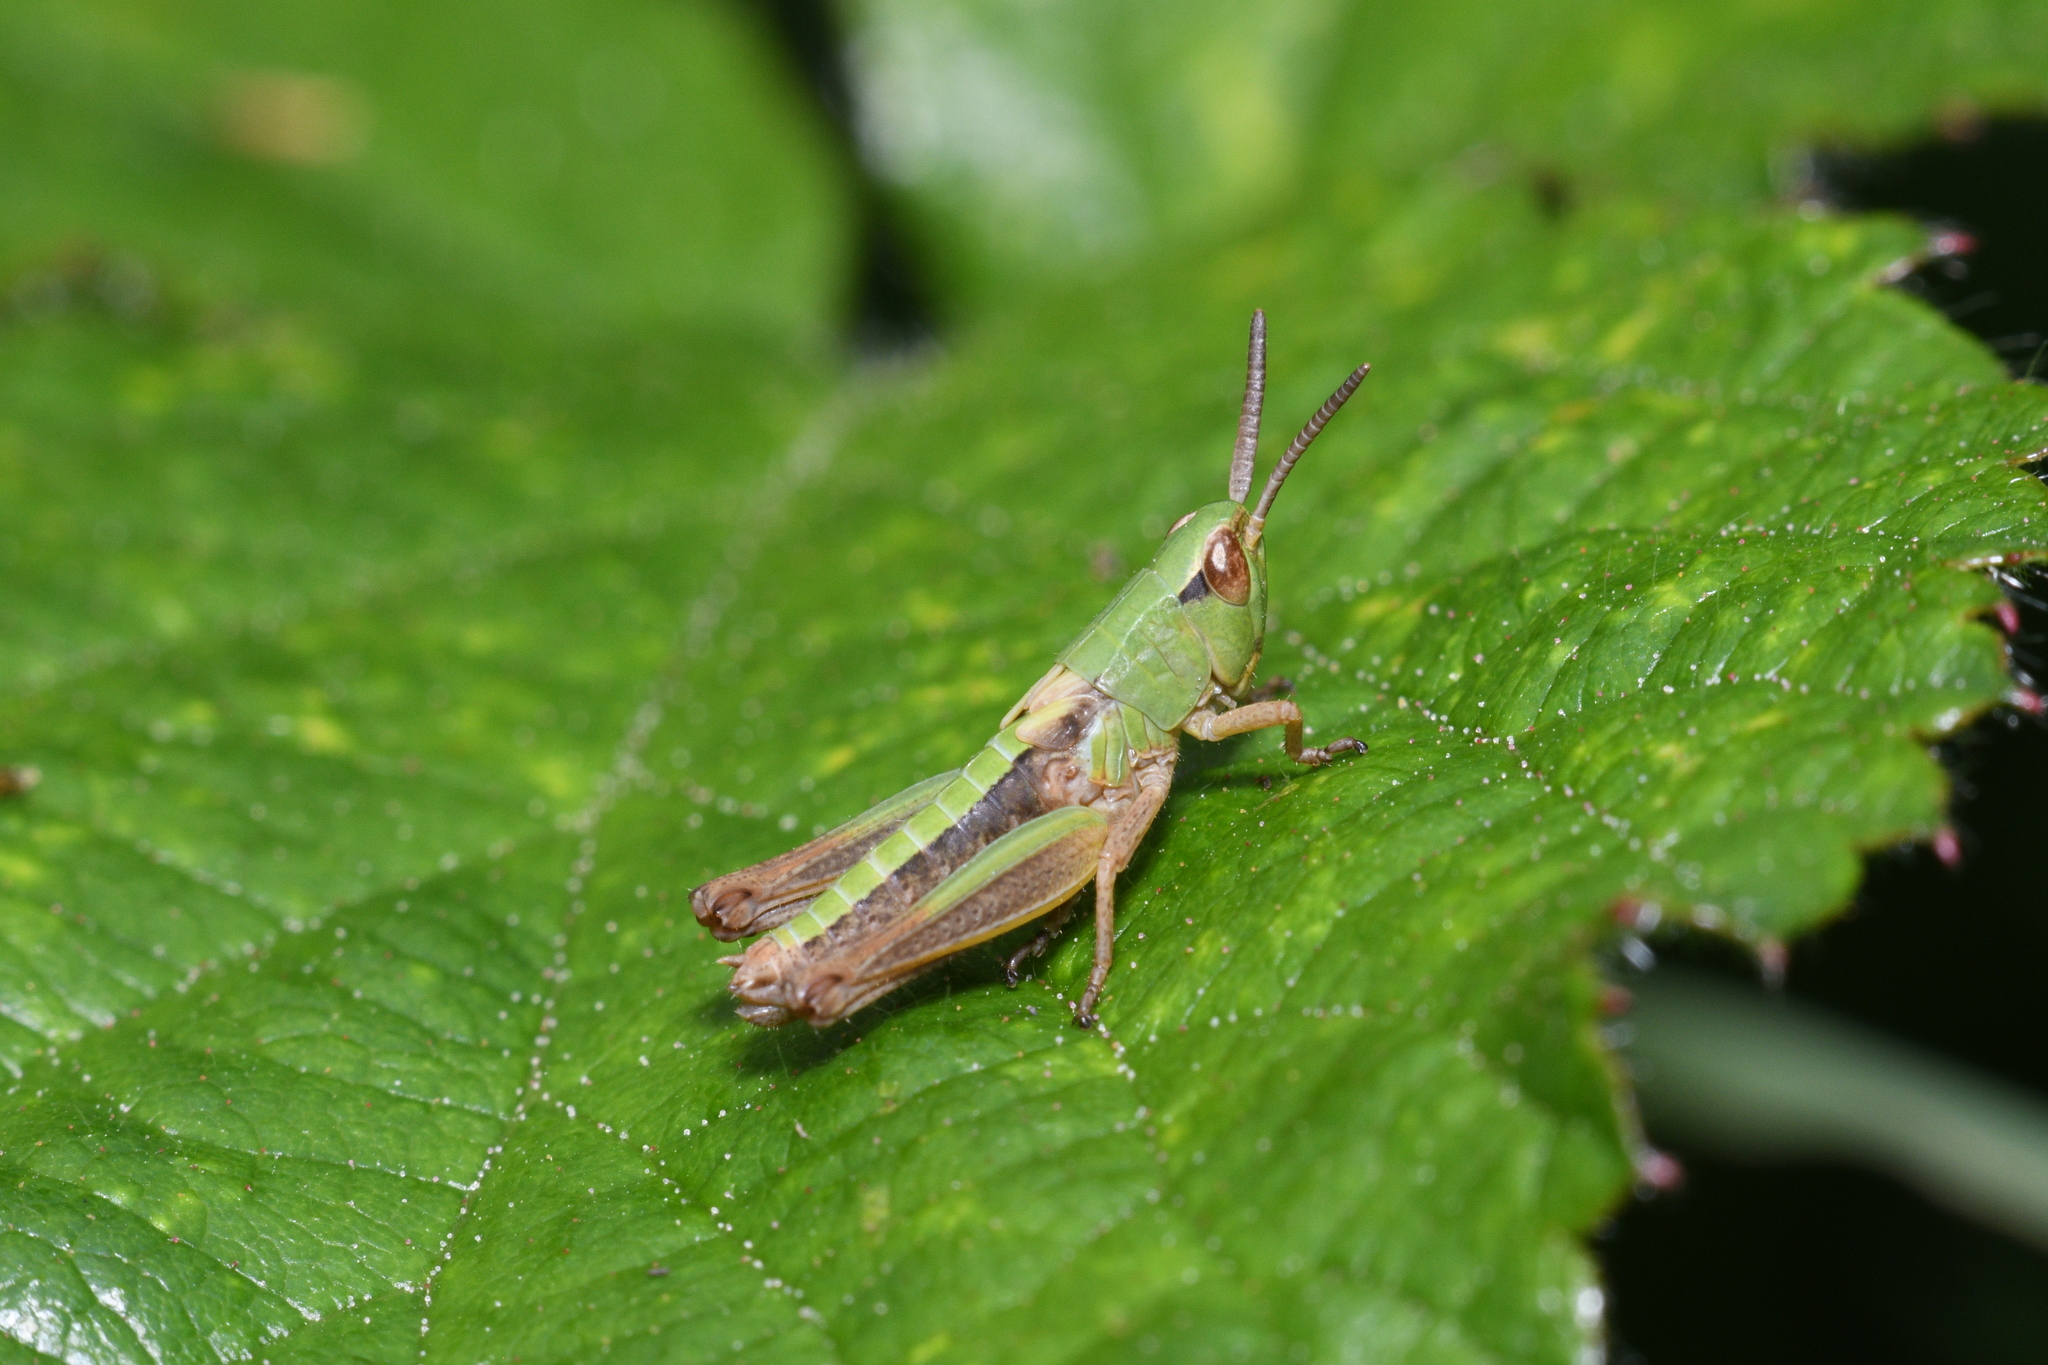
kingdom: Animalia
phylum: Arthropoda
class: Insecta
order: Orthoptera
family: Acrididae
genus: Pseudochorthippus
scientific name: Pseudochorthippus parallelus
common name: Meadow grasshopper
